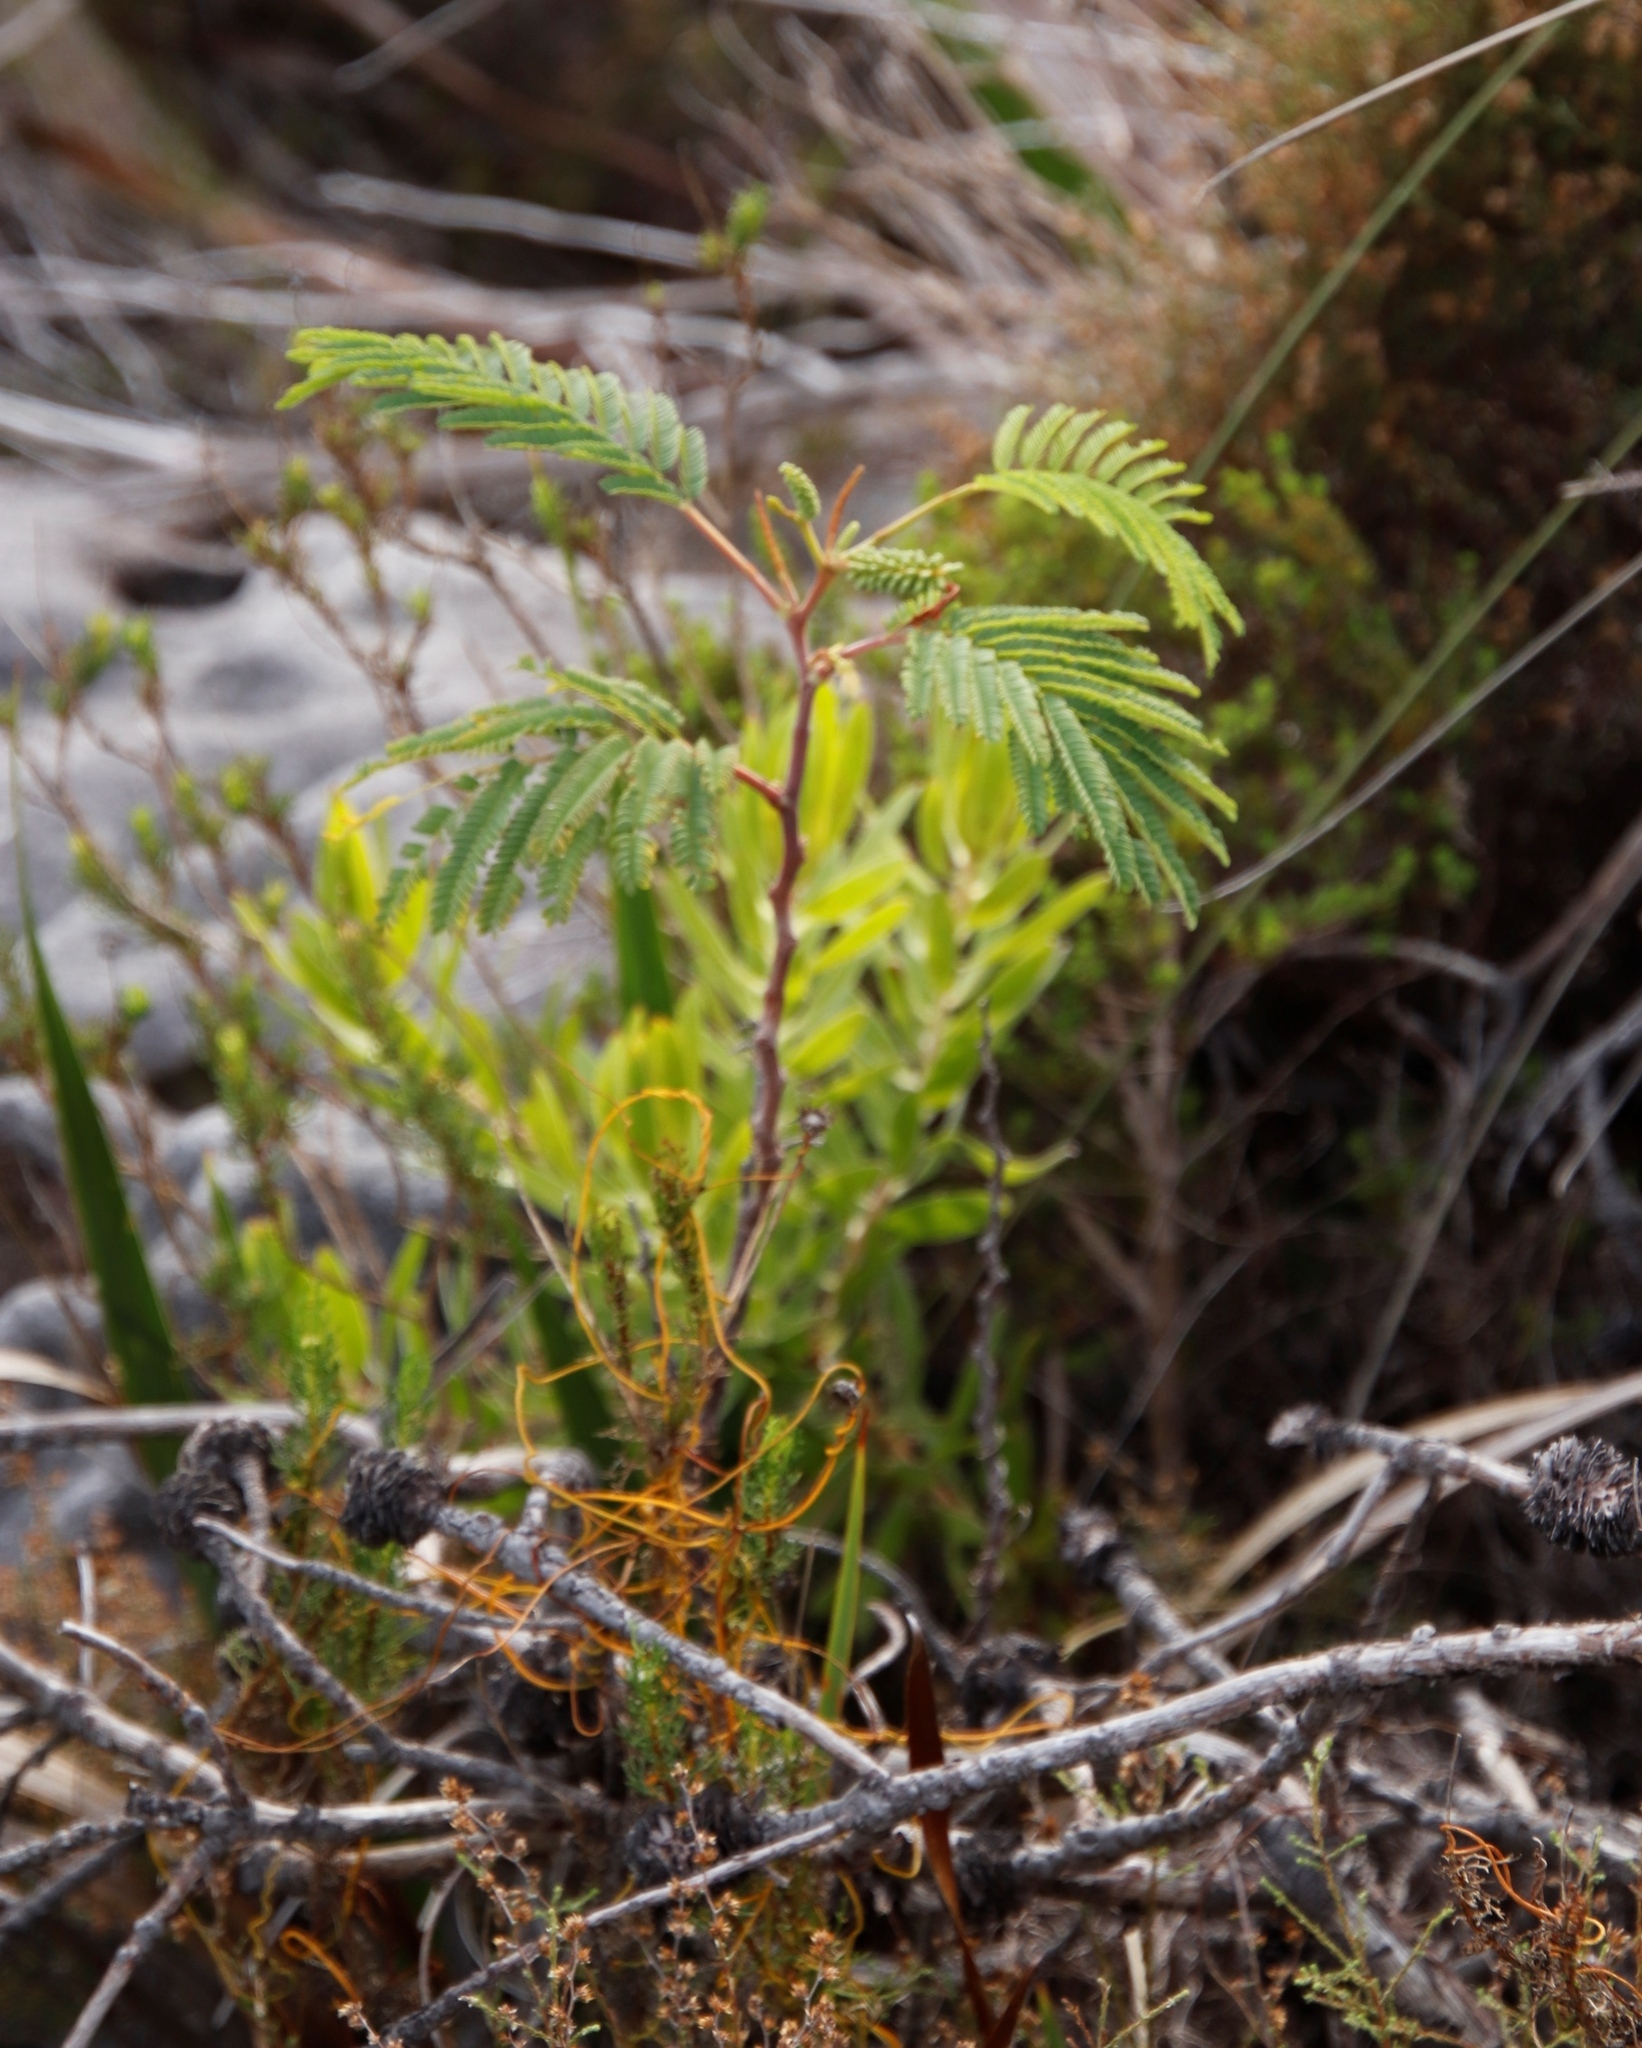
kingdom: Plantae
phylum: Tracheophyta
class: Magnoliopsida
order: Fabales
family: Fabaceae
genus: Paraserianthes
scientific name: Paraserianthes lophantha
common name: Plume albizia
